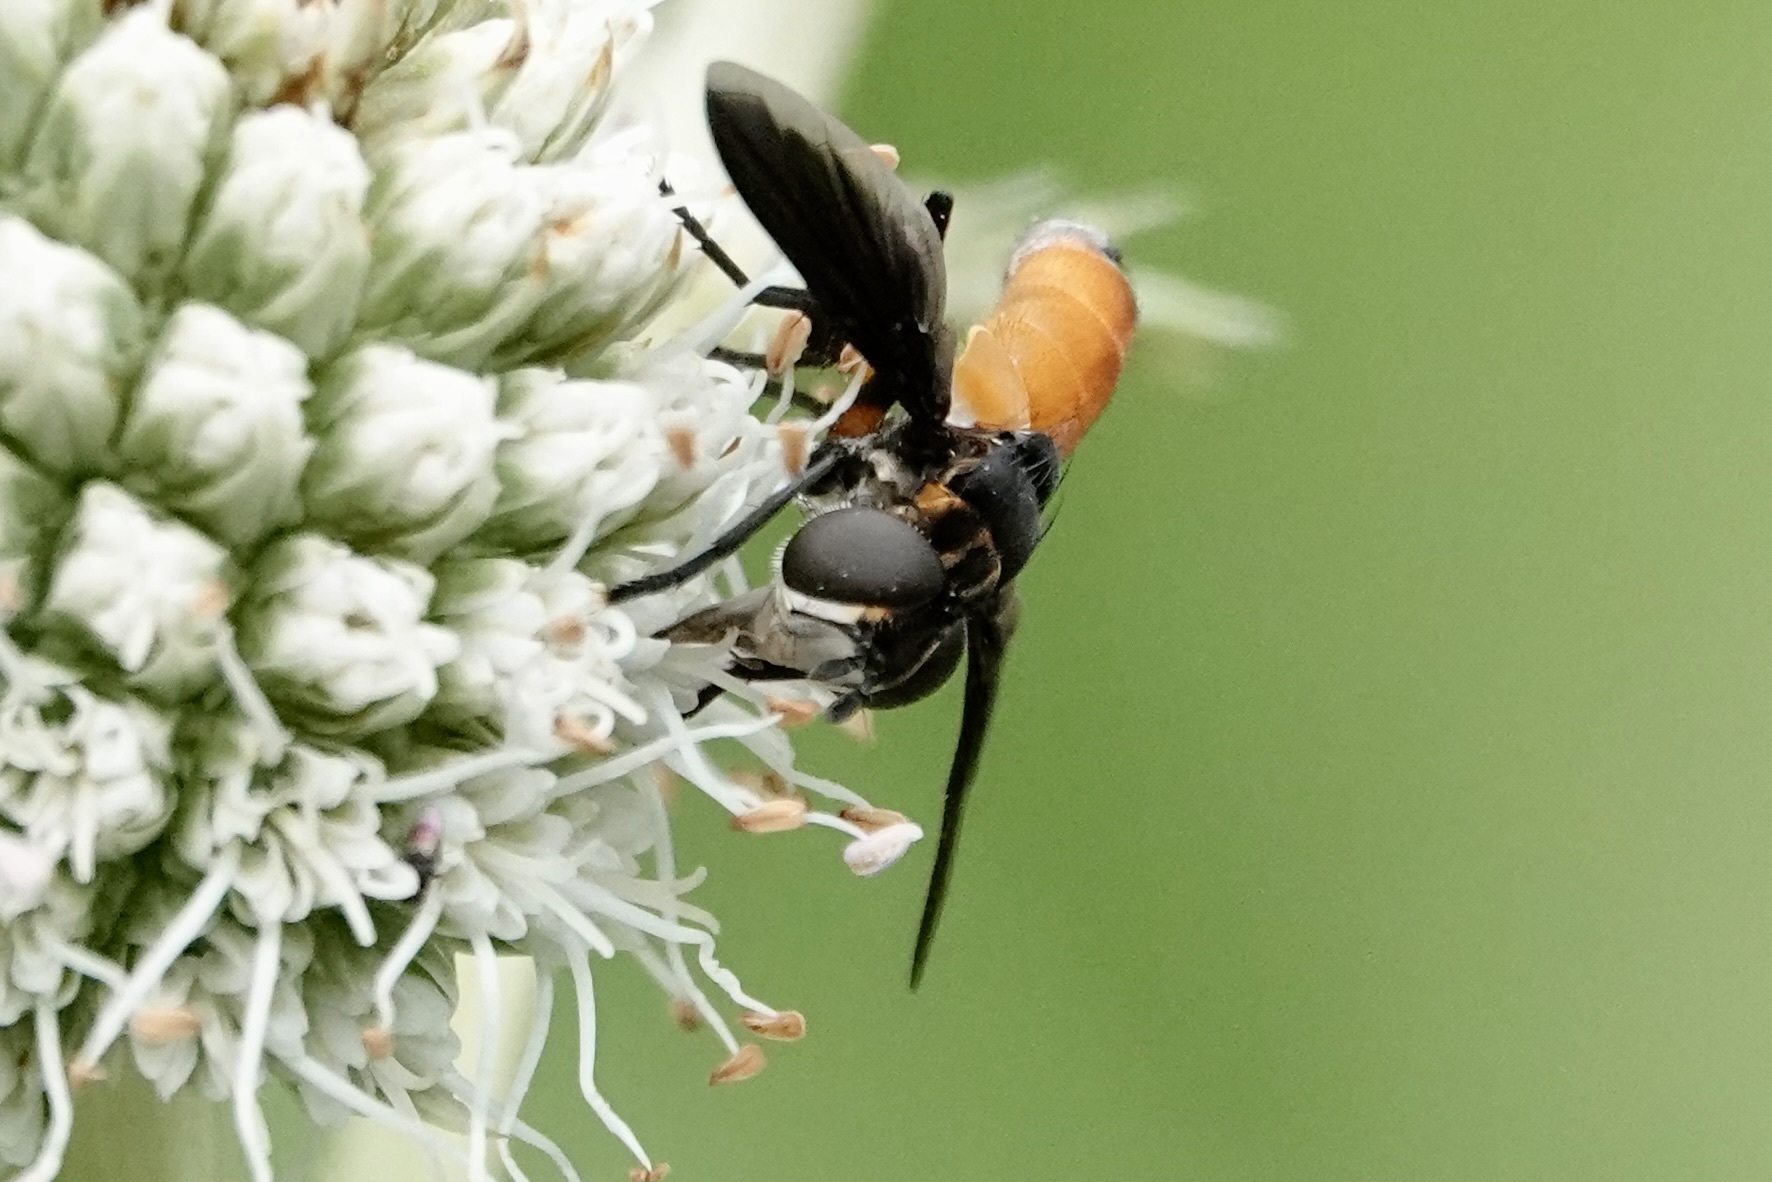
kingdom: Animalia
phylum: Arthropoda
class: Insecta
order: Diptera
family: Tachinidae
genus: Trichopoda
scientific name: Trichopoda pennipes
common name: Tachinid fly
